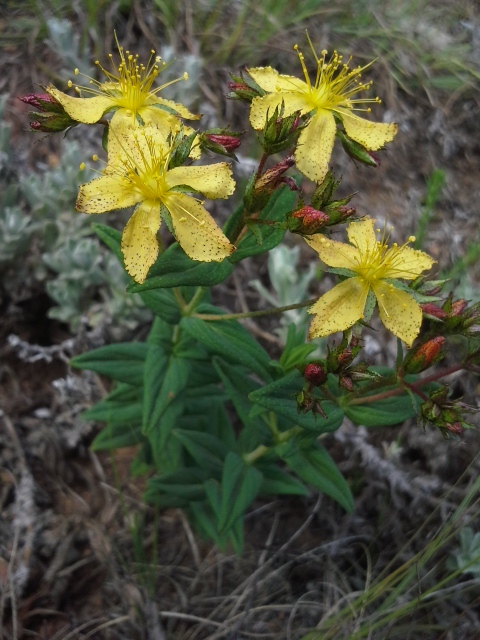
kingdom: Plantae
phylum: Tracheophyta
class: Magnoliopsida
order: Malpighiales
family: Hypericaceae
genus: Hypericum
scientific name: Hypericum aethiopicum
